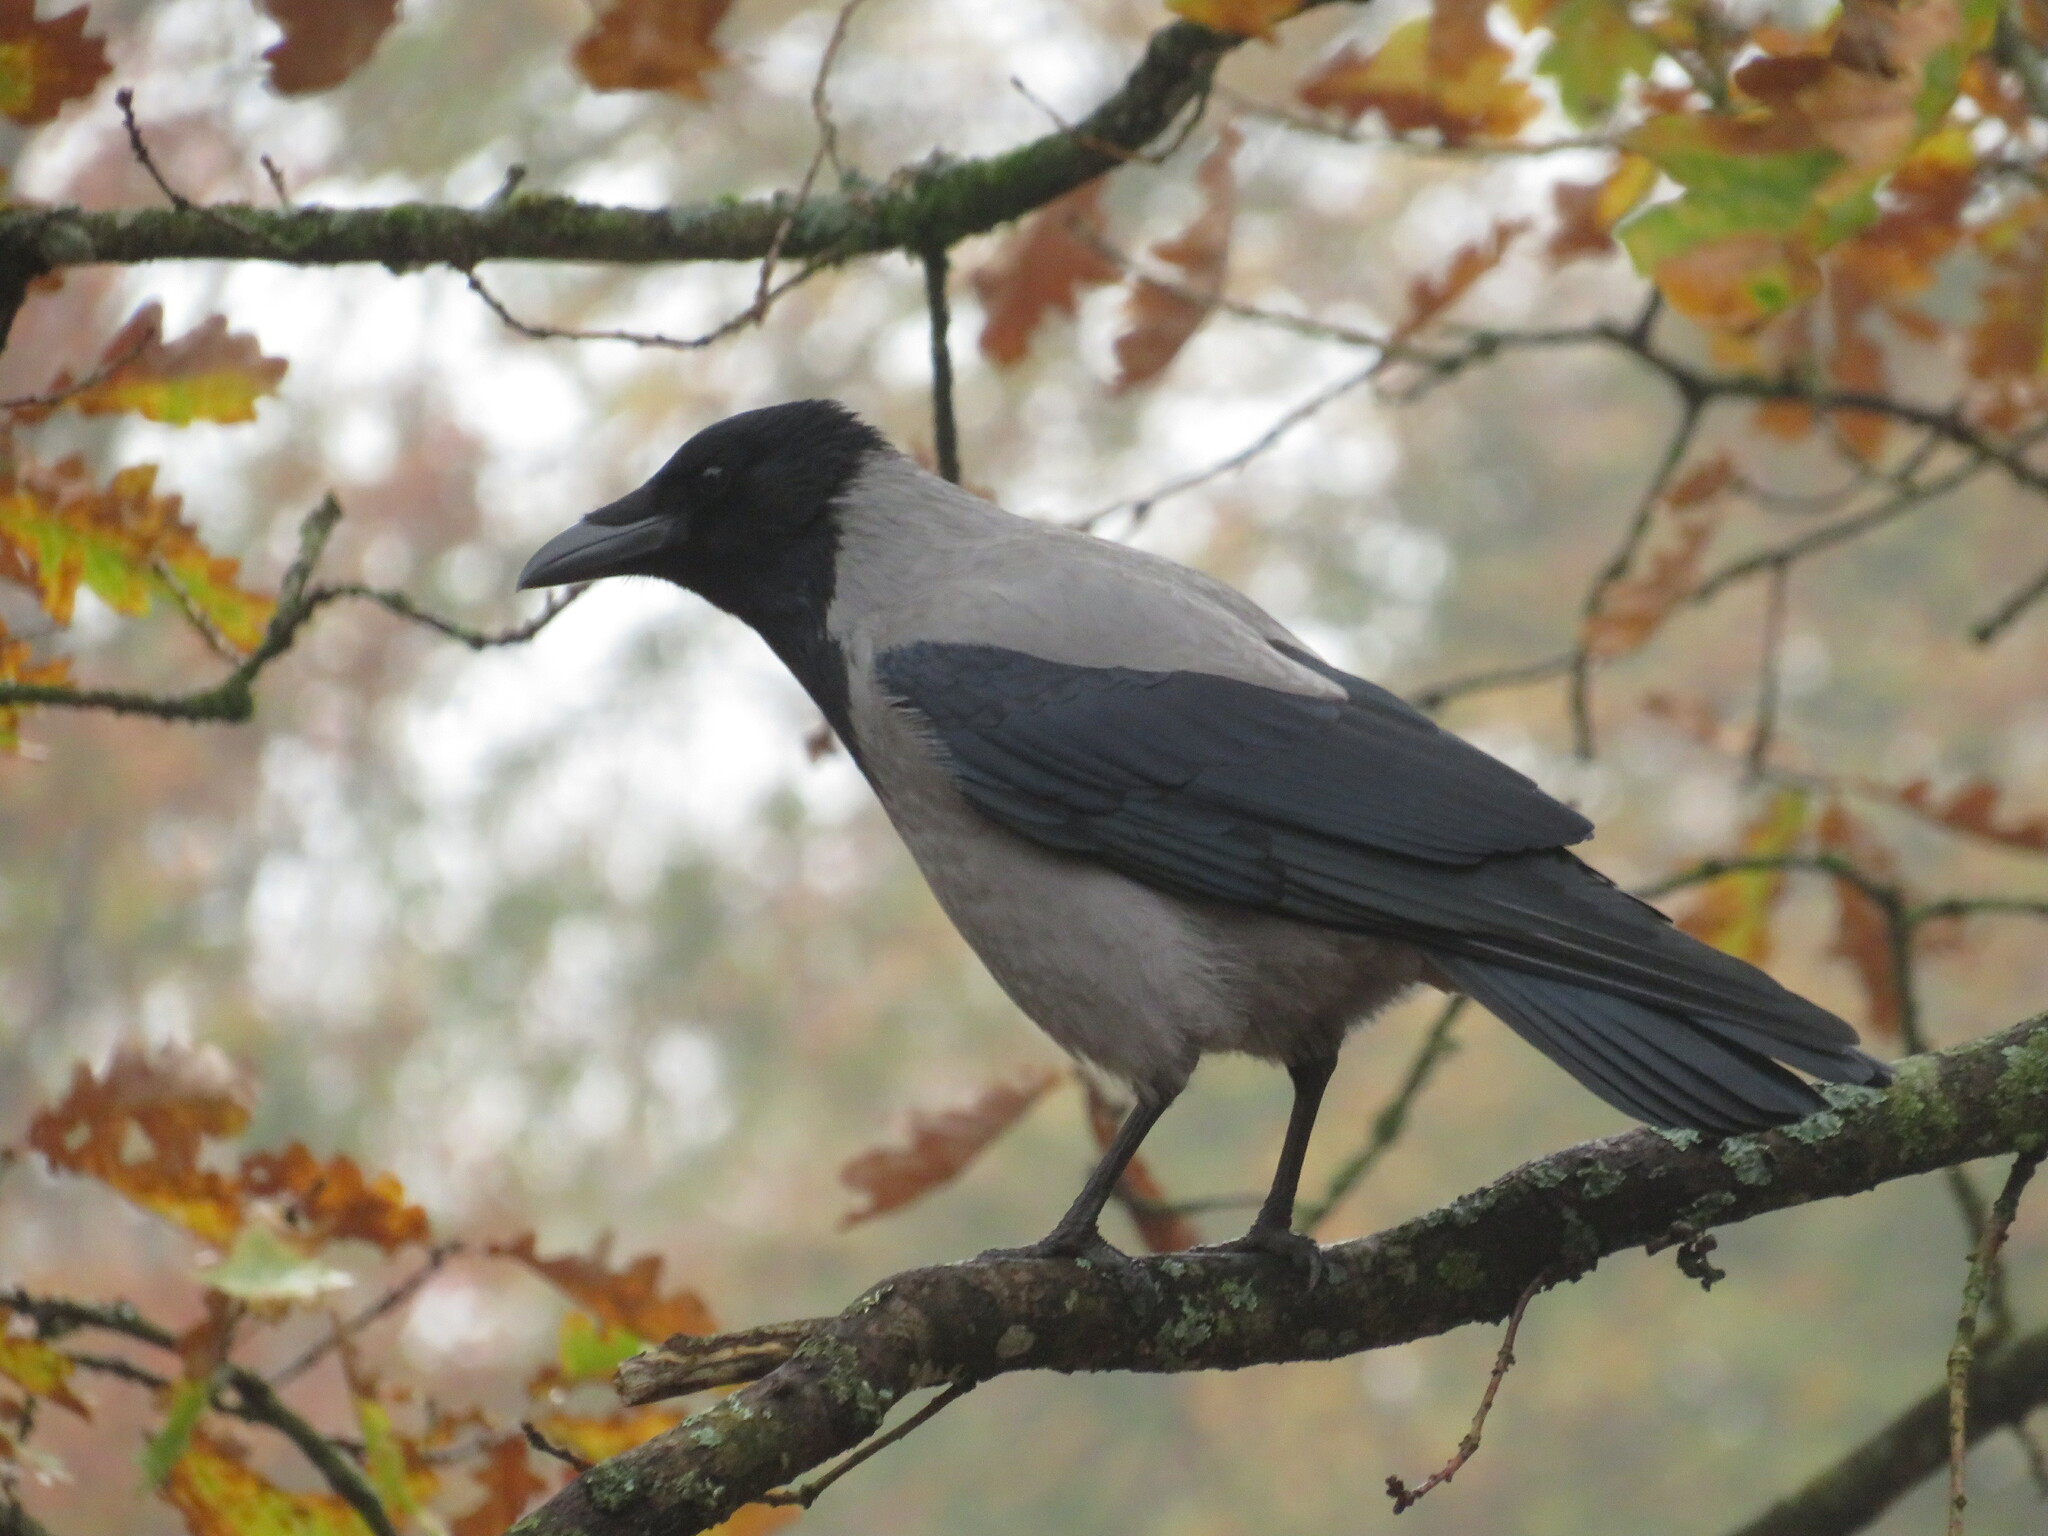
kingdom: Animalia
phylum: Chordata
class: Aves
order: Passeriformes
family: Corvidae
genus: Corvus
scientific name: Corvus cornix
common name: Hooded crow
